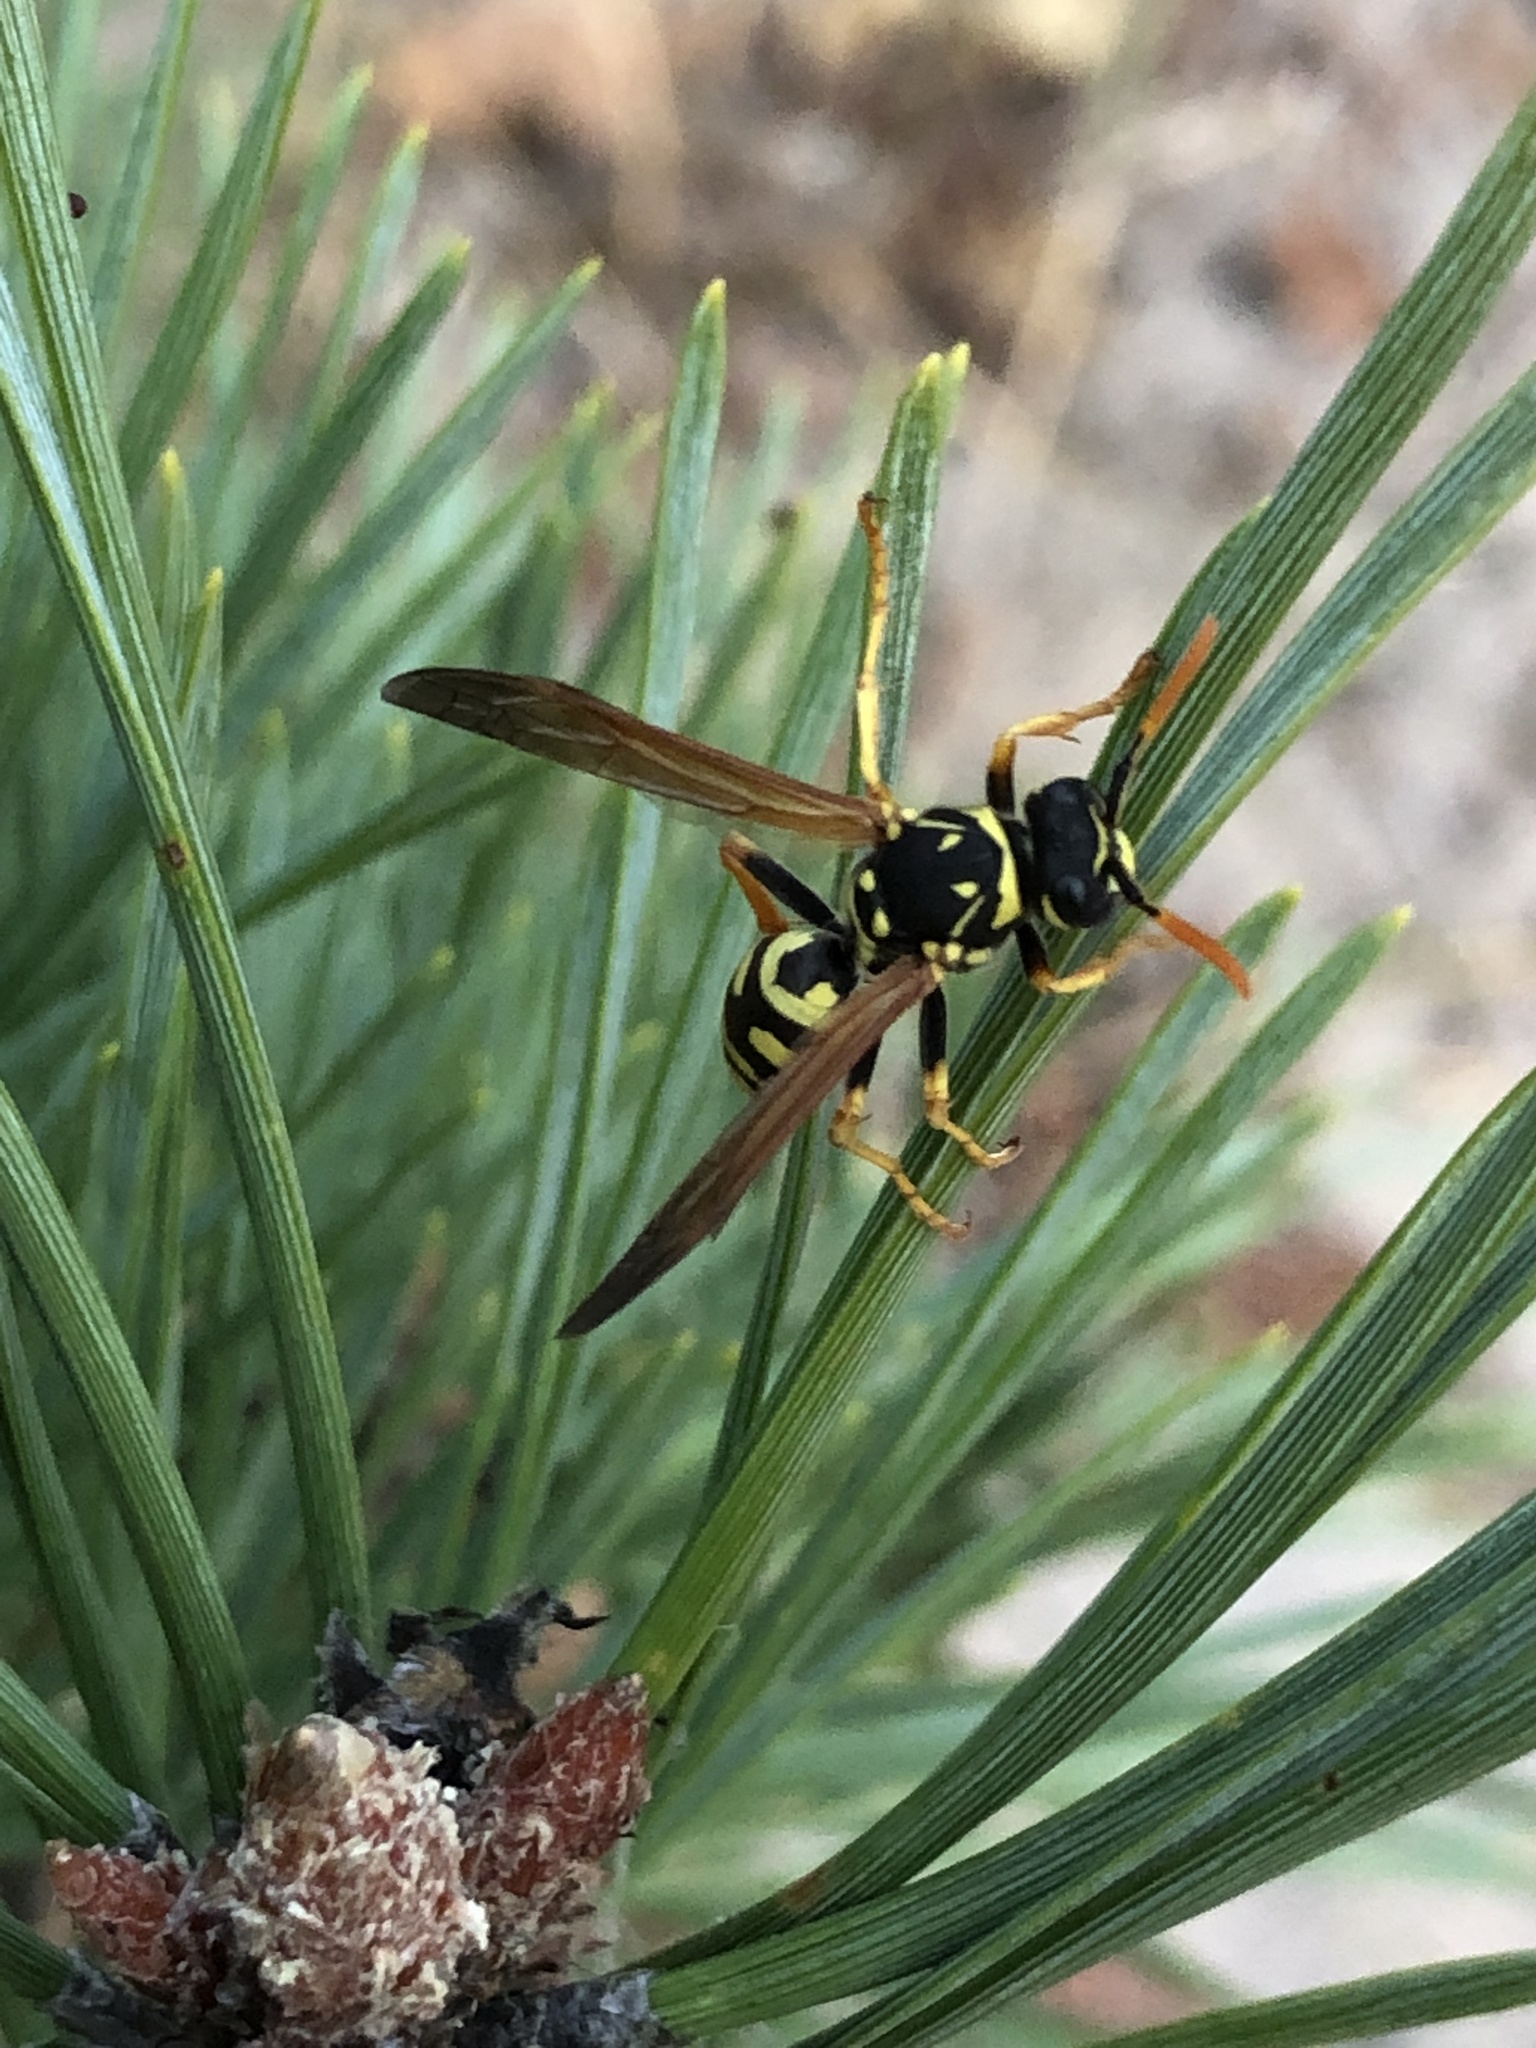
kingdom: Animalia
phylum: Arthropoda
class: Insecta
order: Hymenoptera
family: Eumenidae
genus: Polistes
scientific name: Polistes dominula
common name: Paper wasp
